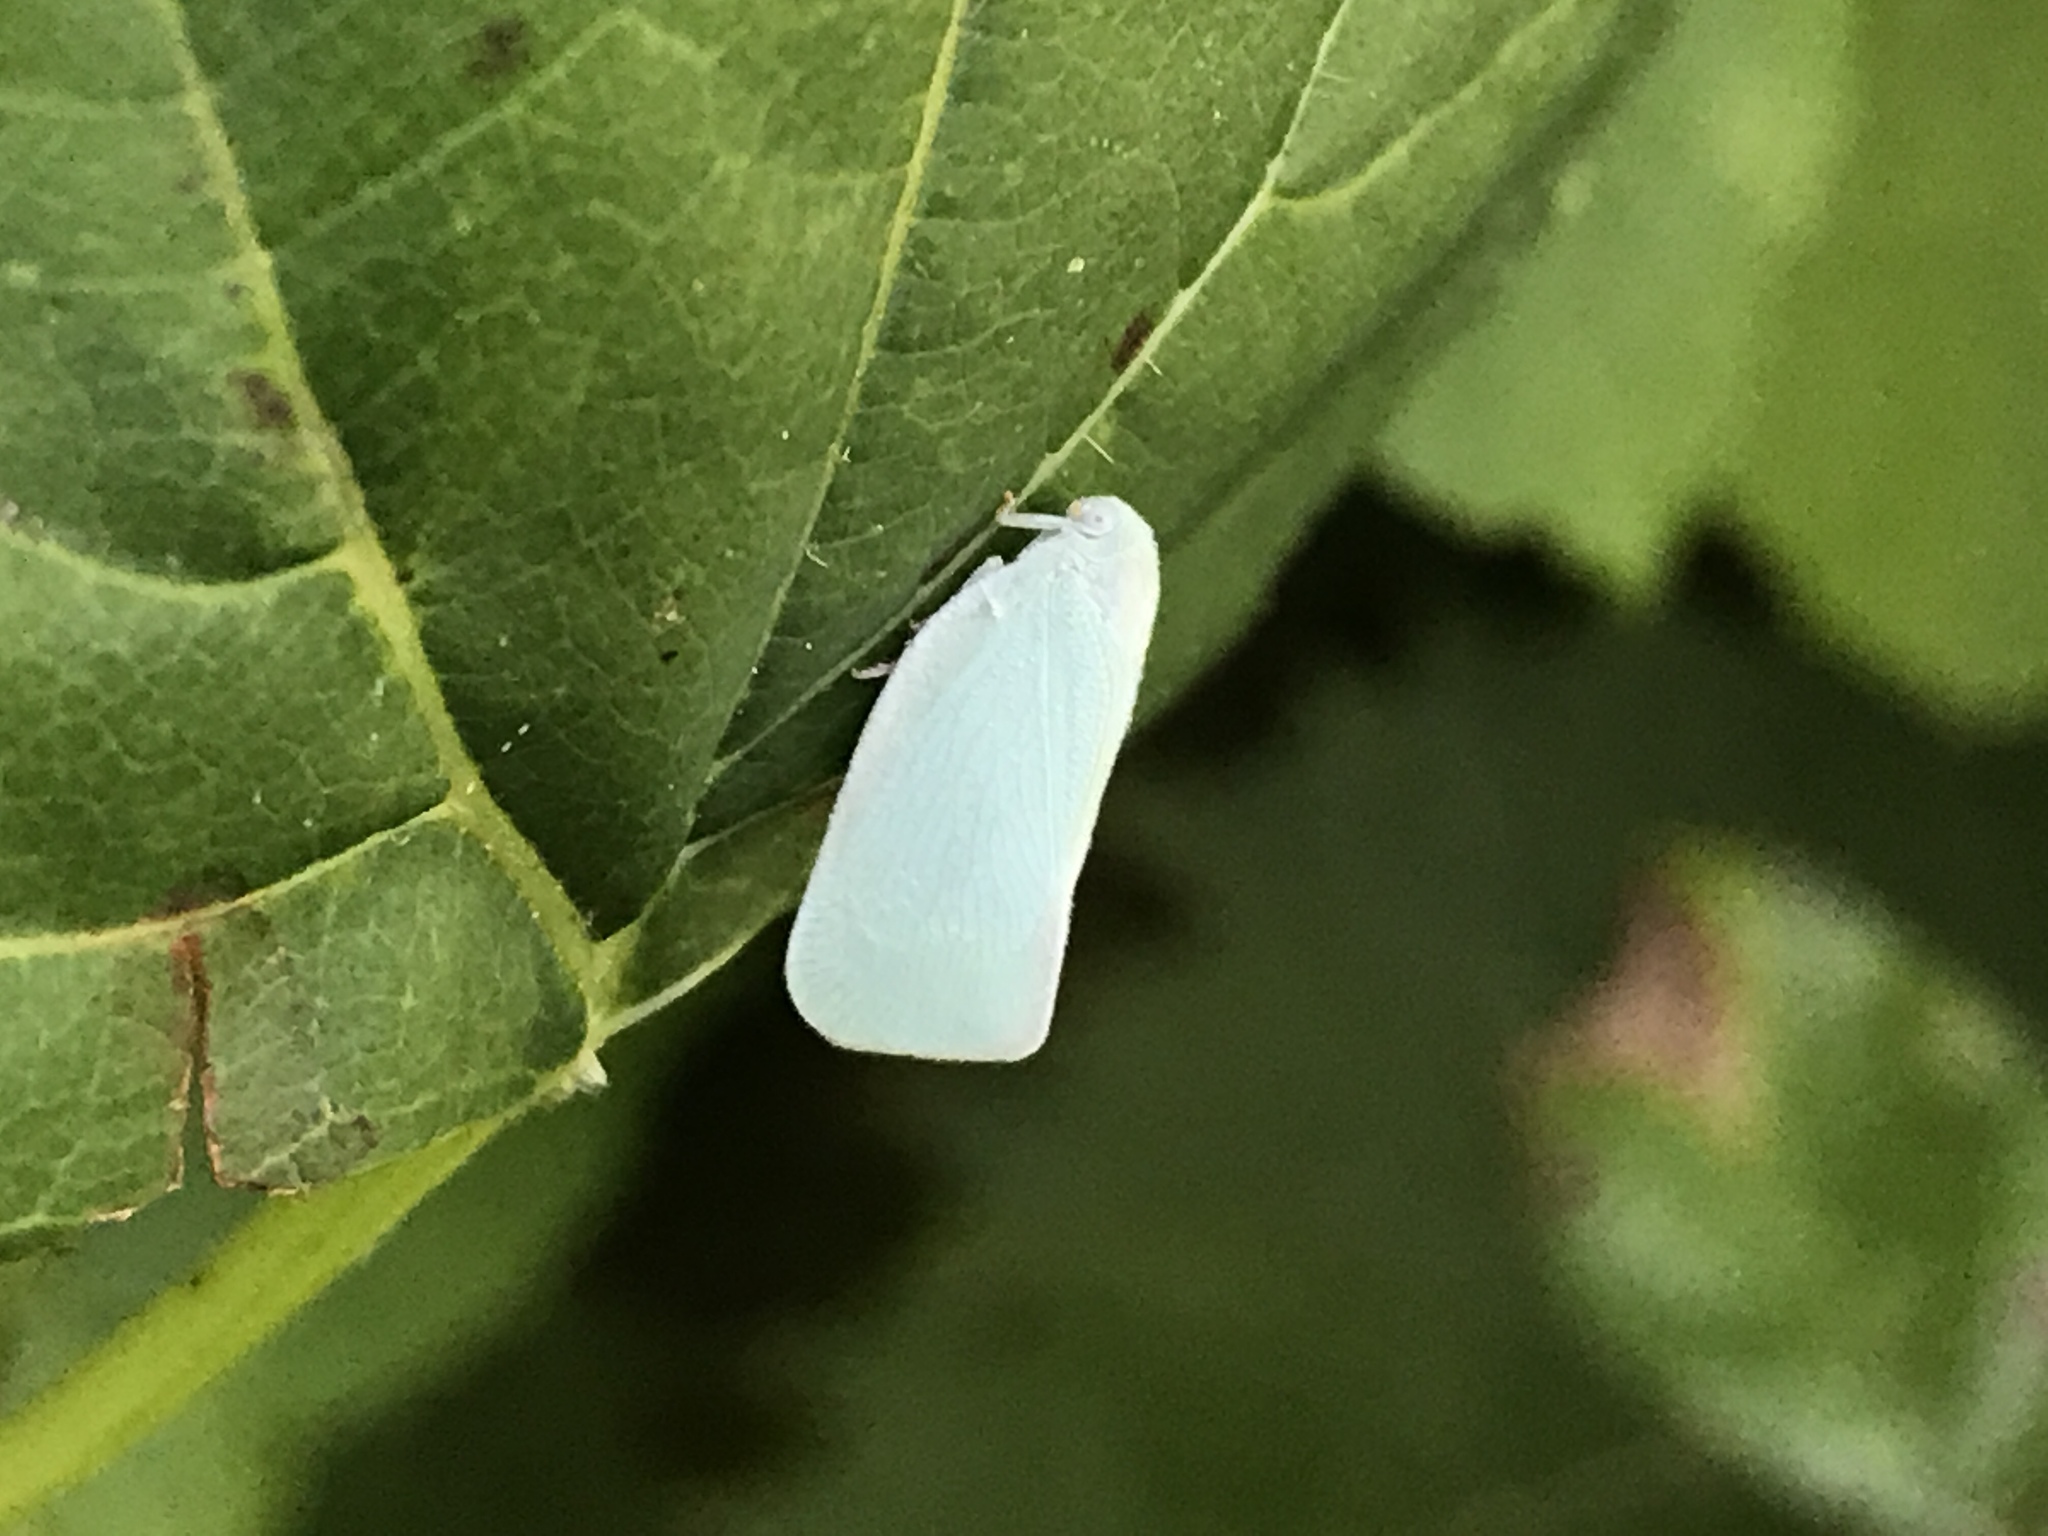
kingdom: Animalia
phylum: Arthropoda
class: Insecta
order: Hemiptera
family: Flatidae
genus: Flatormenis
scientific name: Flatormenis proxima
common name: Northern flatid planthopper
